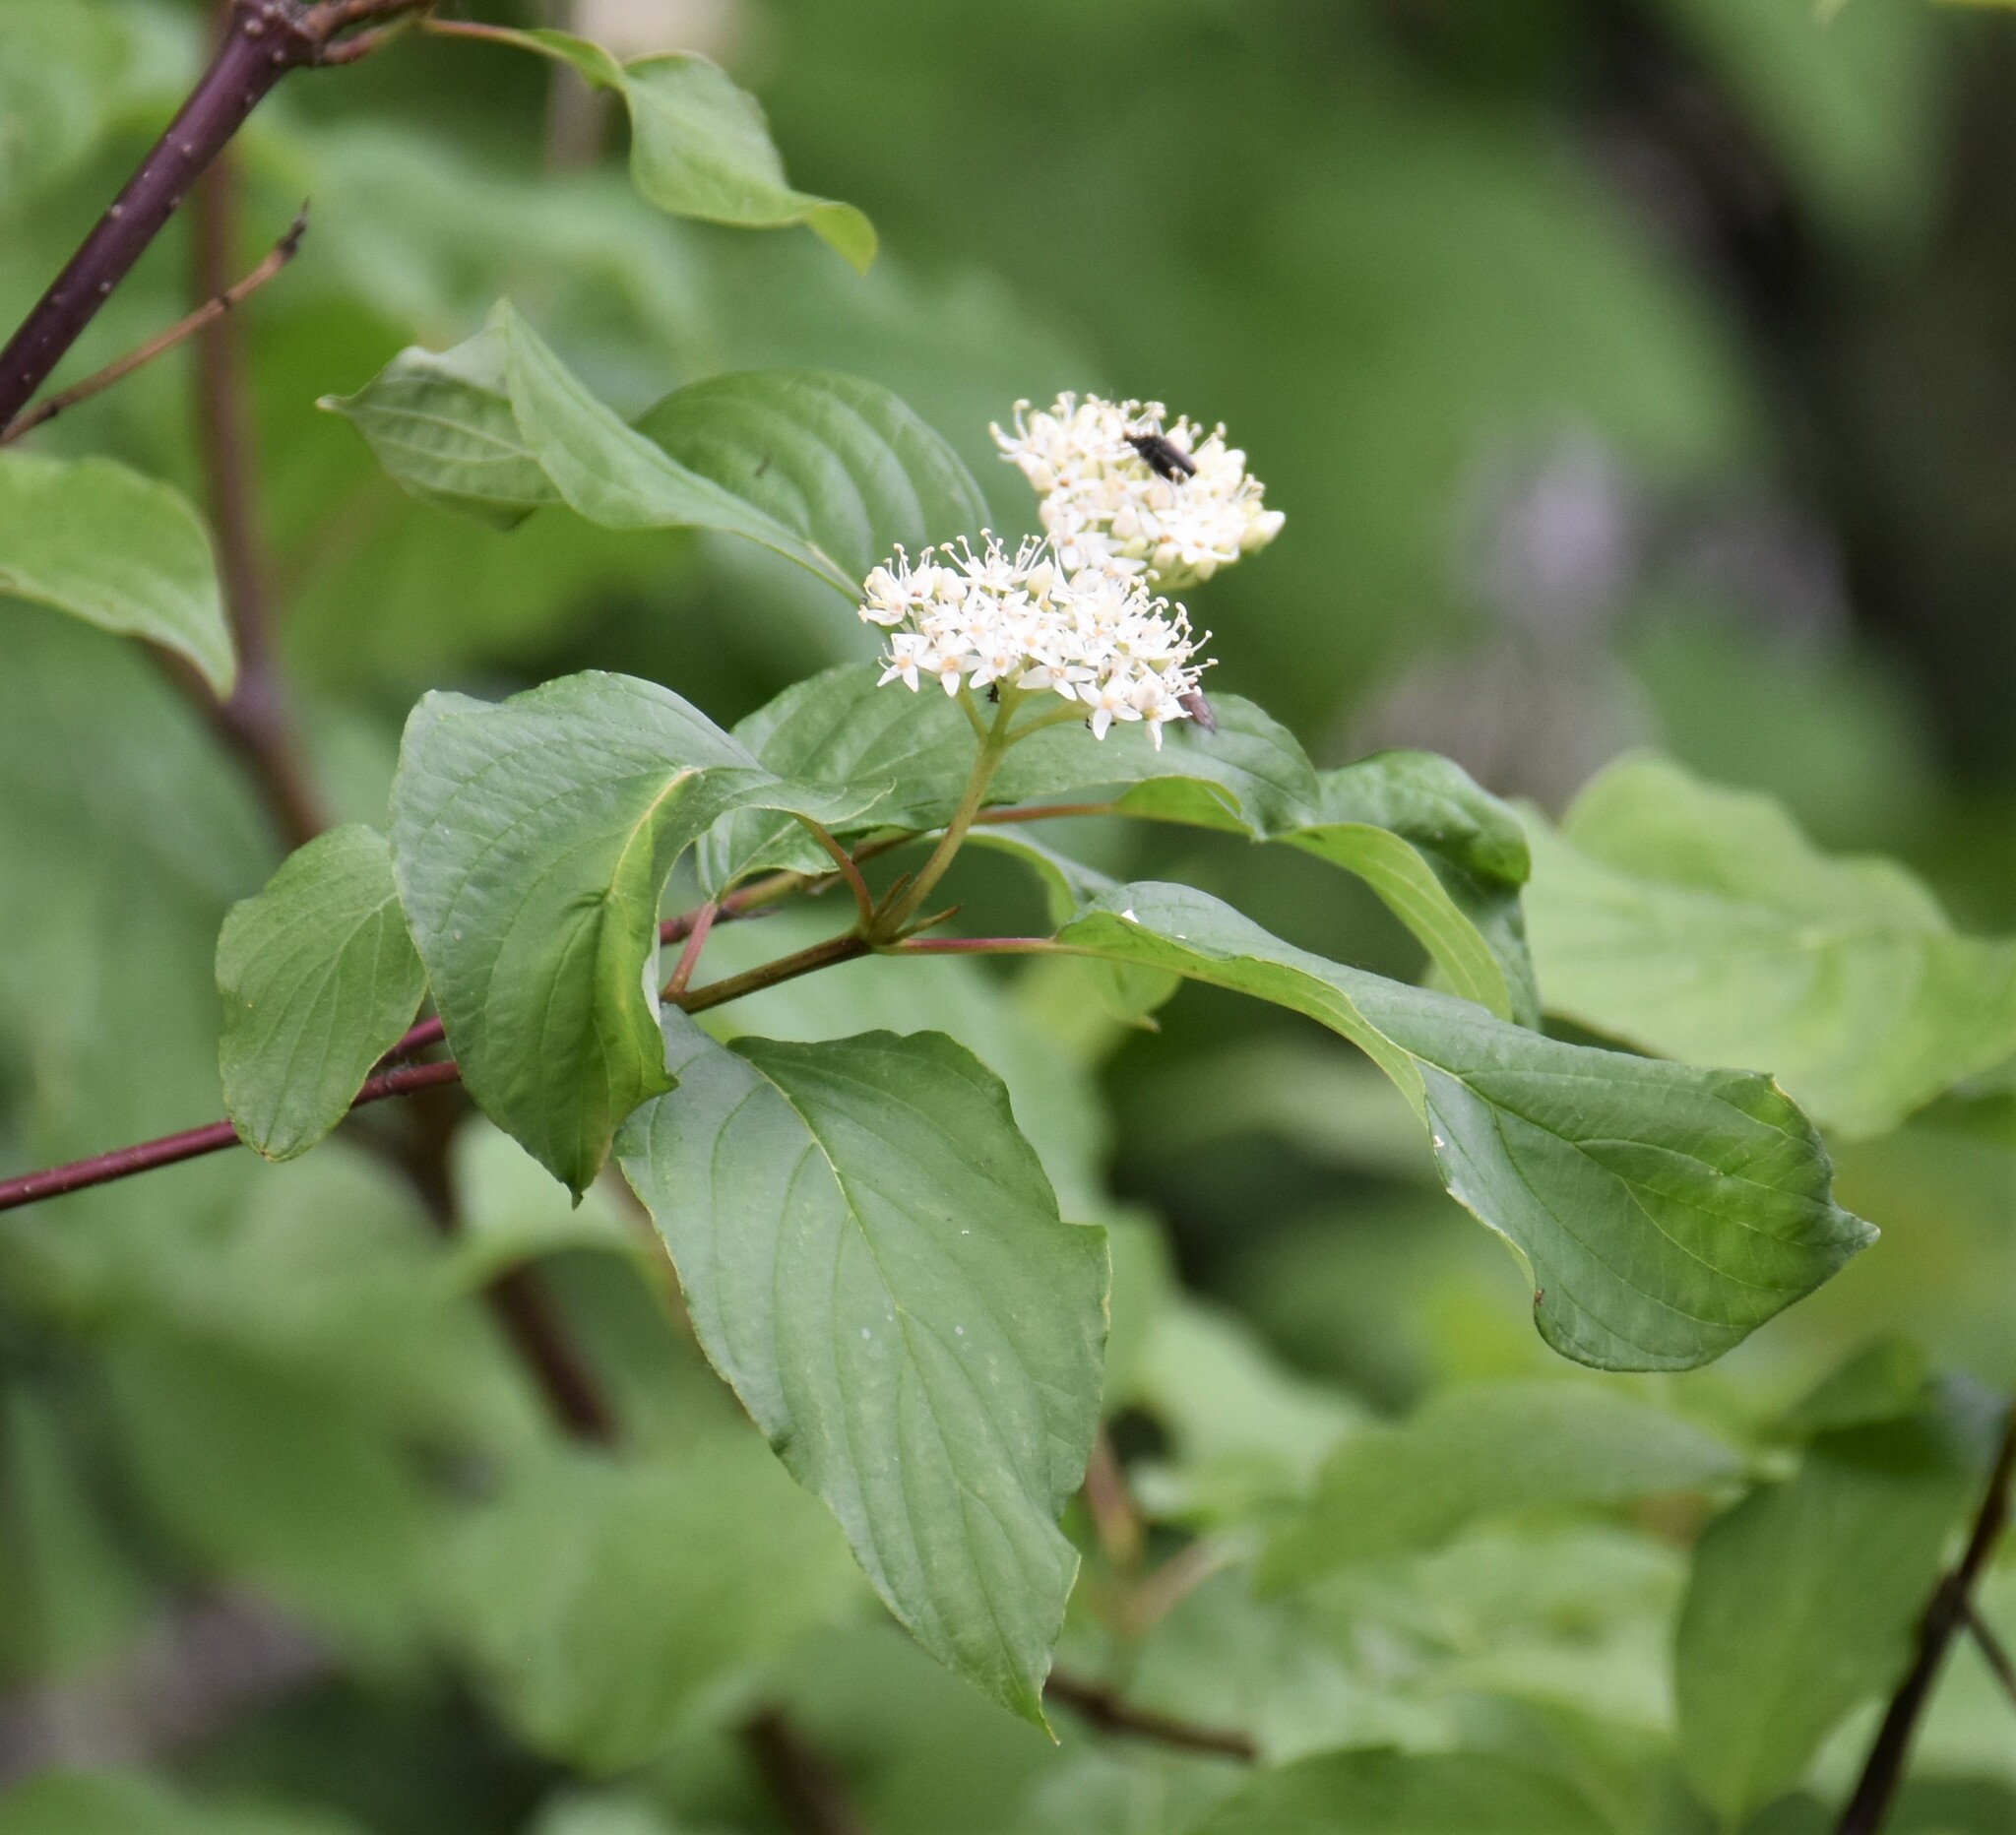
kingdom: Plantae
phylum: Tracheophyta
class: Magnoliopsida
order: Cornales
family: Cornaceae
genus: Cornus
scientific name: Cornus sericea
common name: Red-osier dogwood
